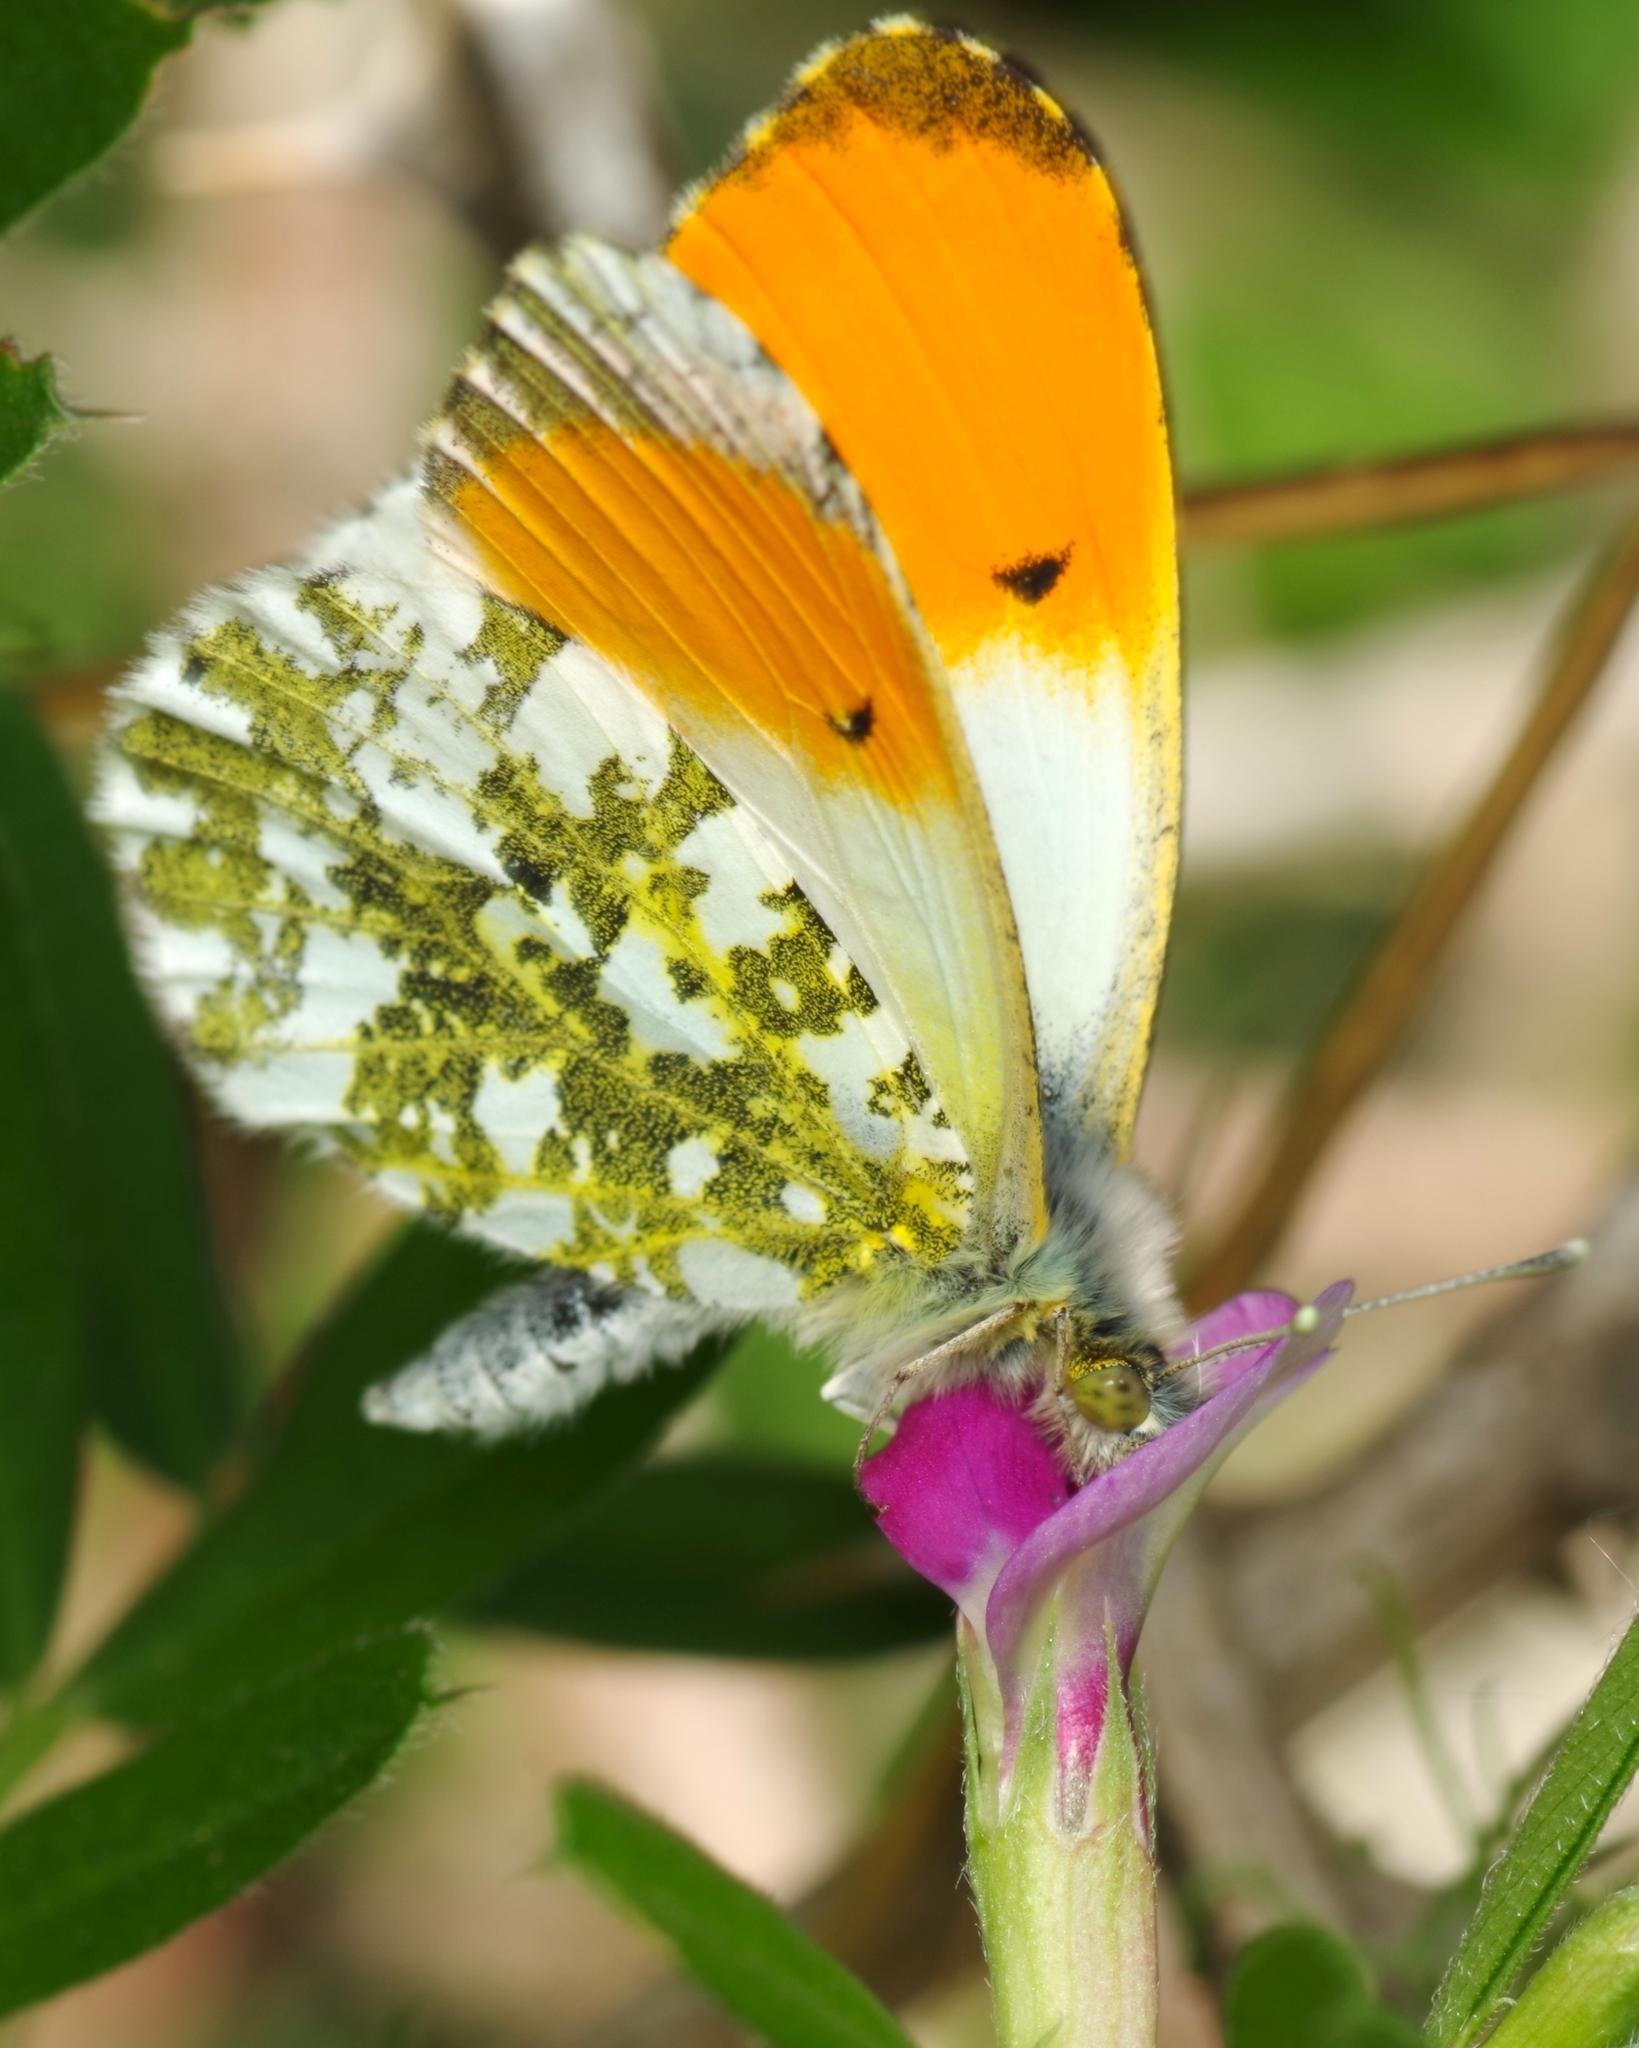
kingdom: Animalia
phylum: Arthropoda
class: Insecta
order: Lepidoptera
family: Pieridae
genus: Anthocharis
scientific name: Anthocharis cardamines
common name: Orange-tip
